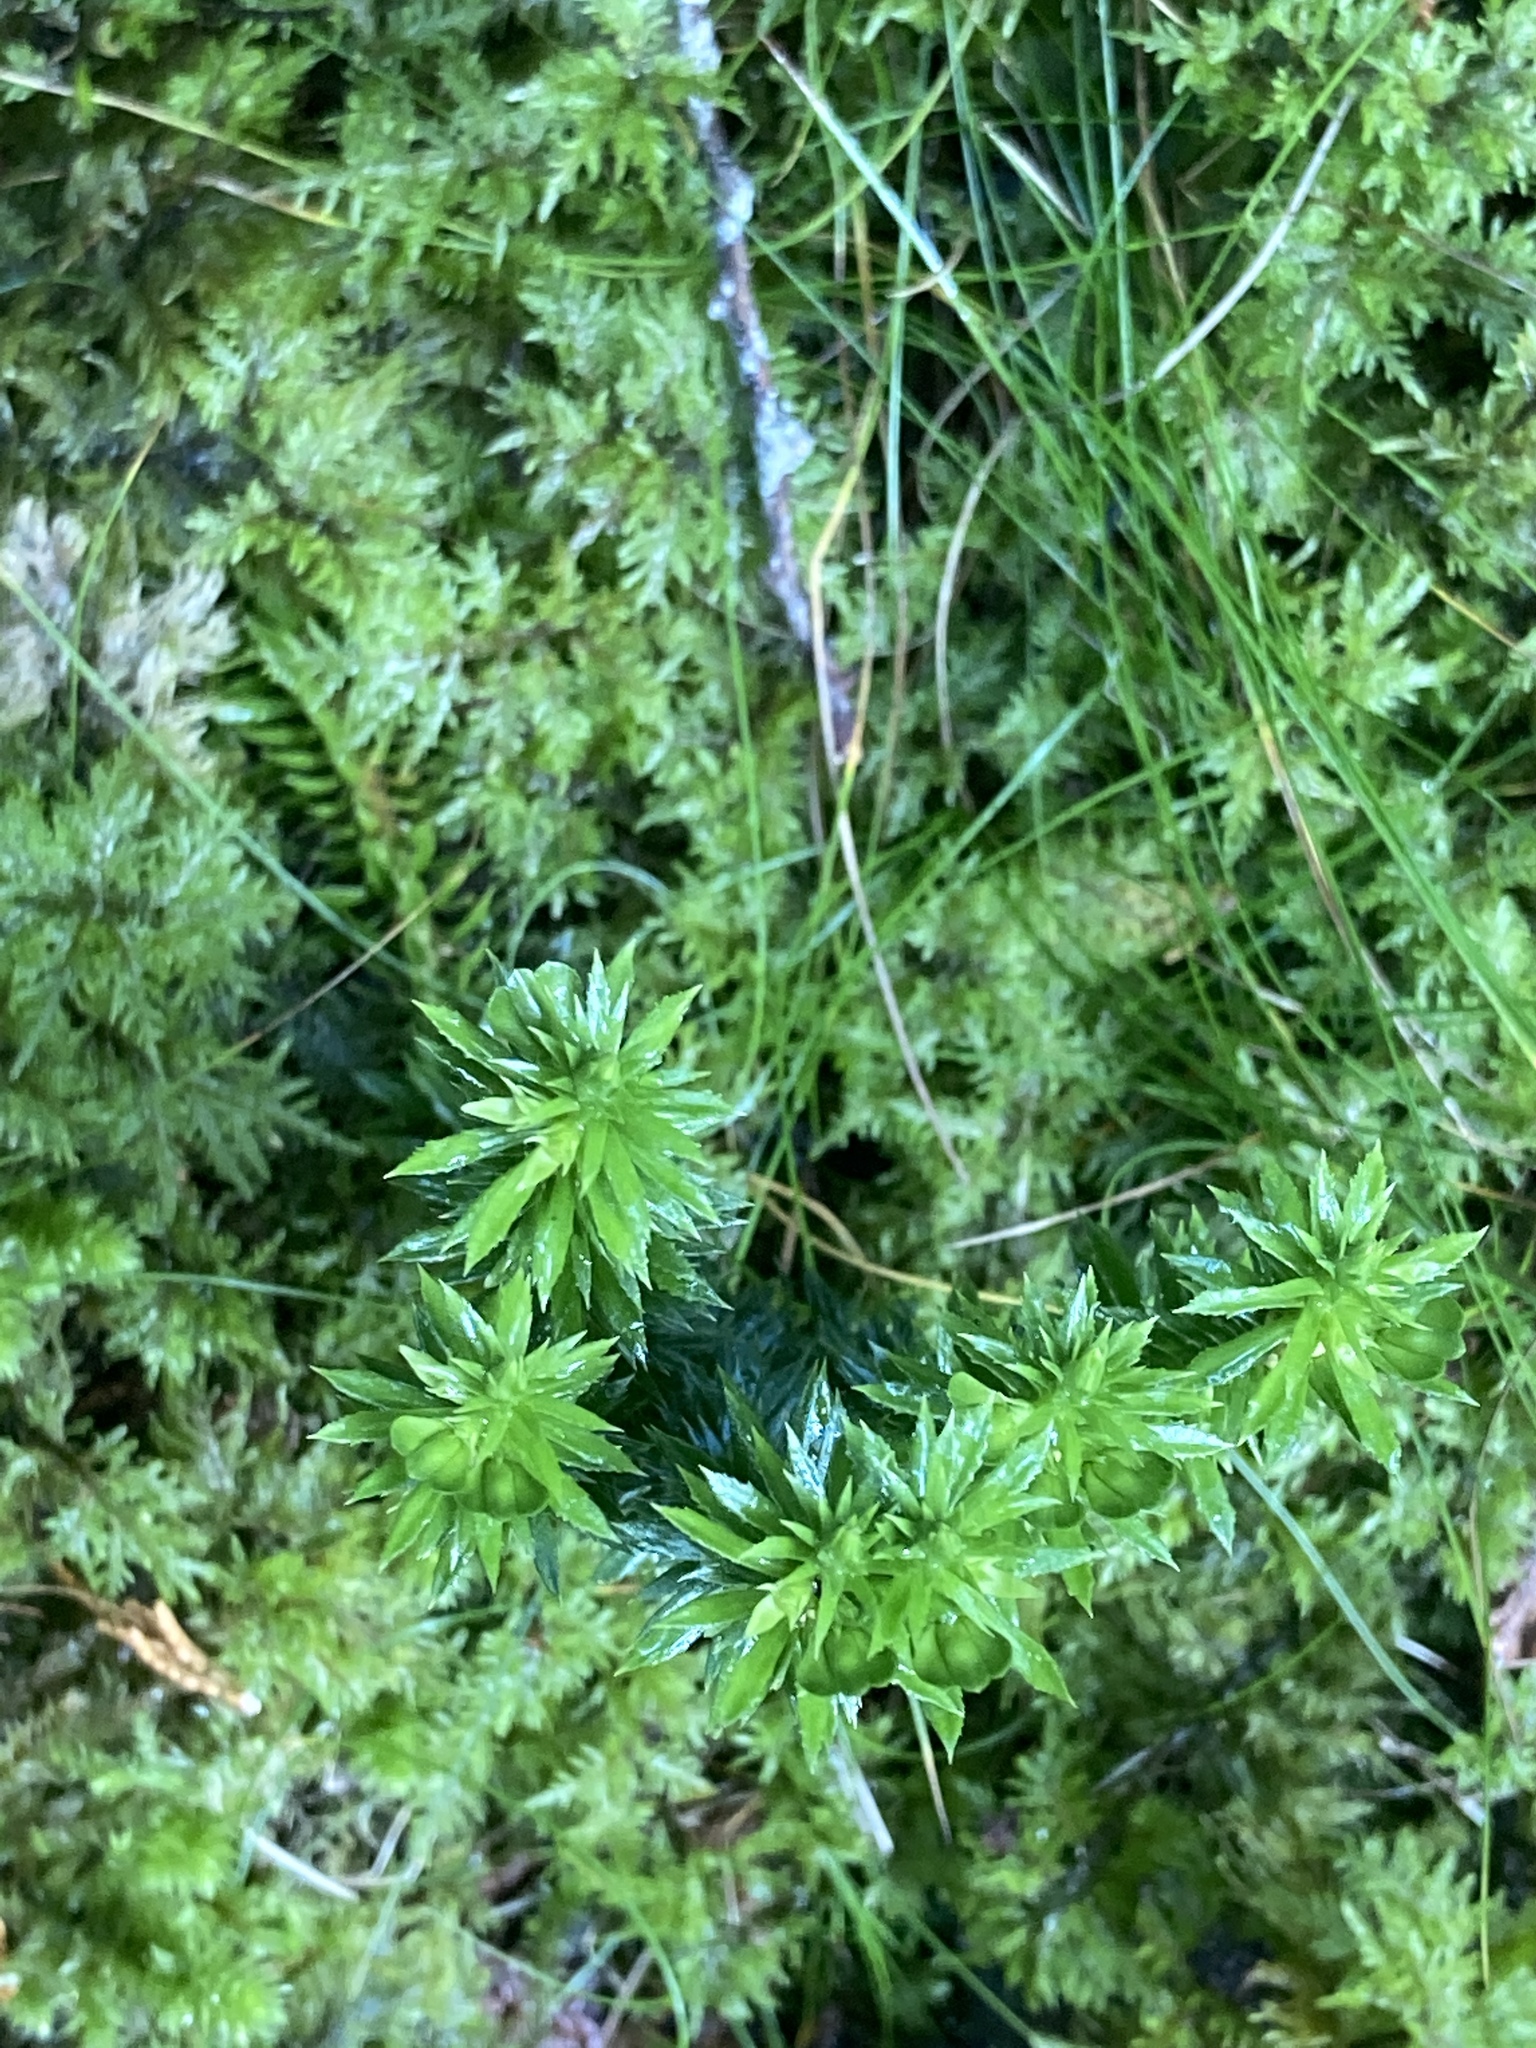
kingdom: Plantae
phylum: Tracheophyta
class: Lycopodiopsida
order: Lycopodiales
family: Lycopodiaceae
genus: Huperzia
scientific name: Huperzia lucidula
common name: Shining clubmoss
